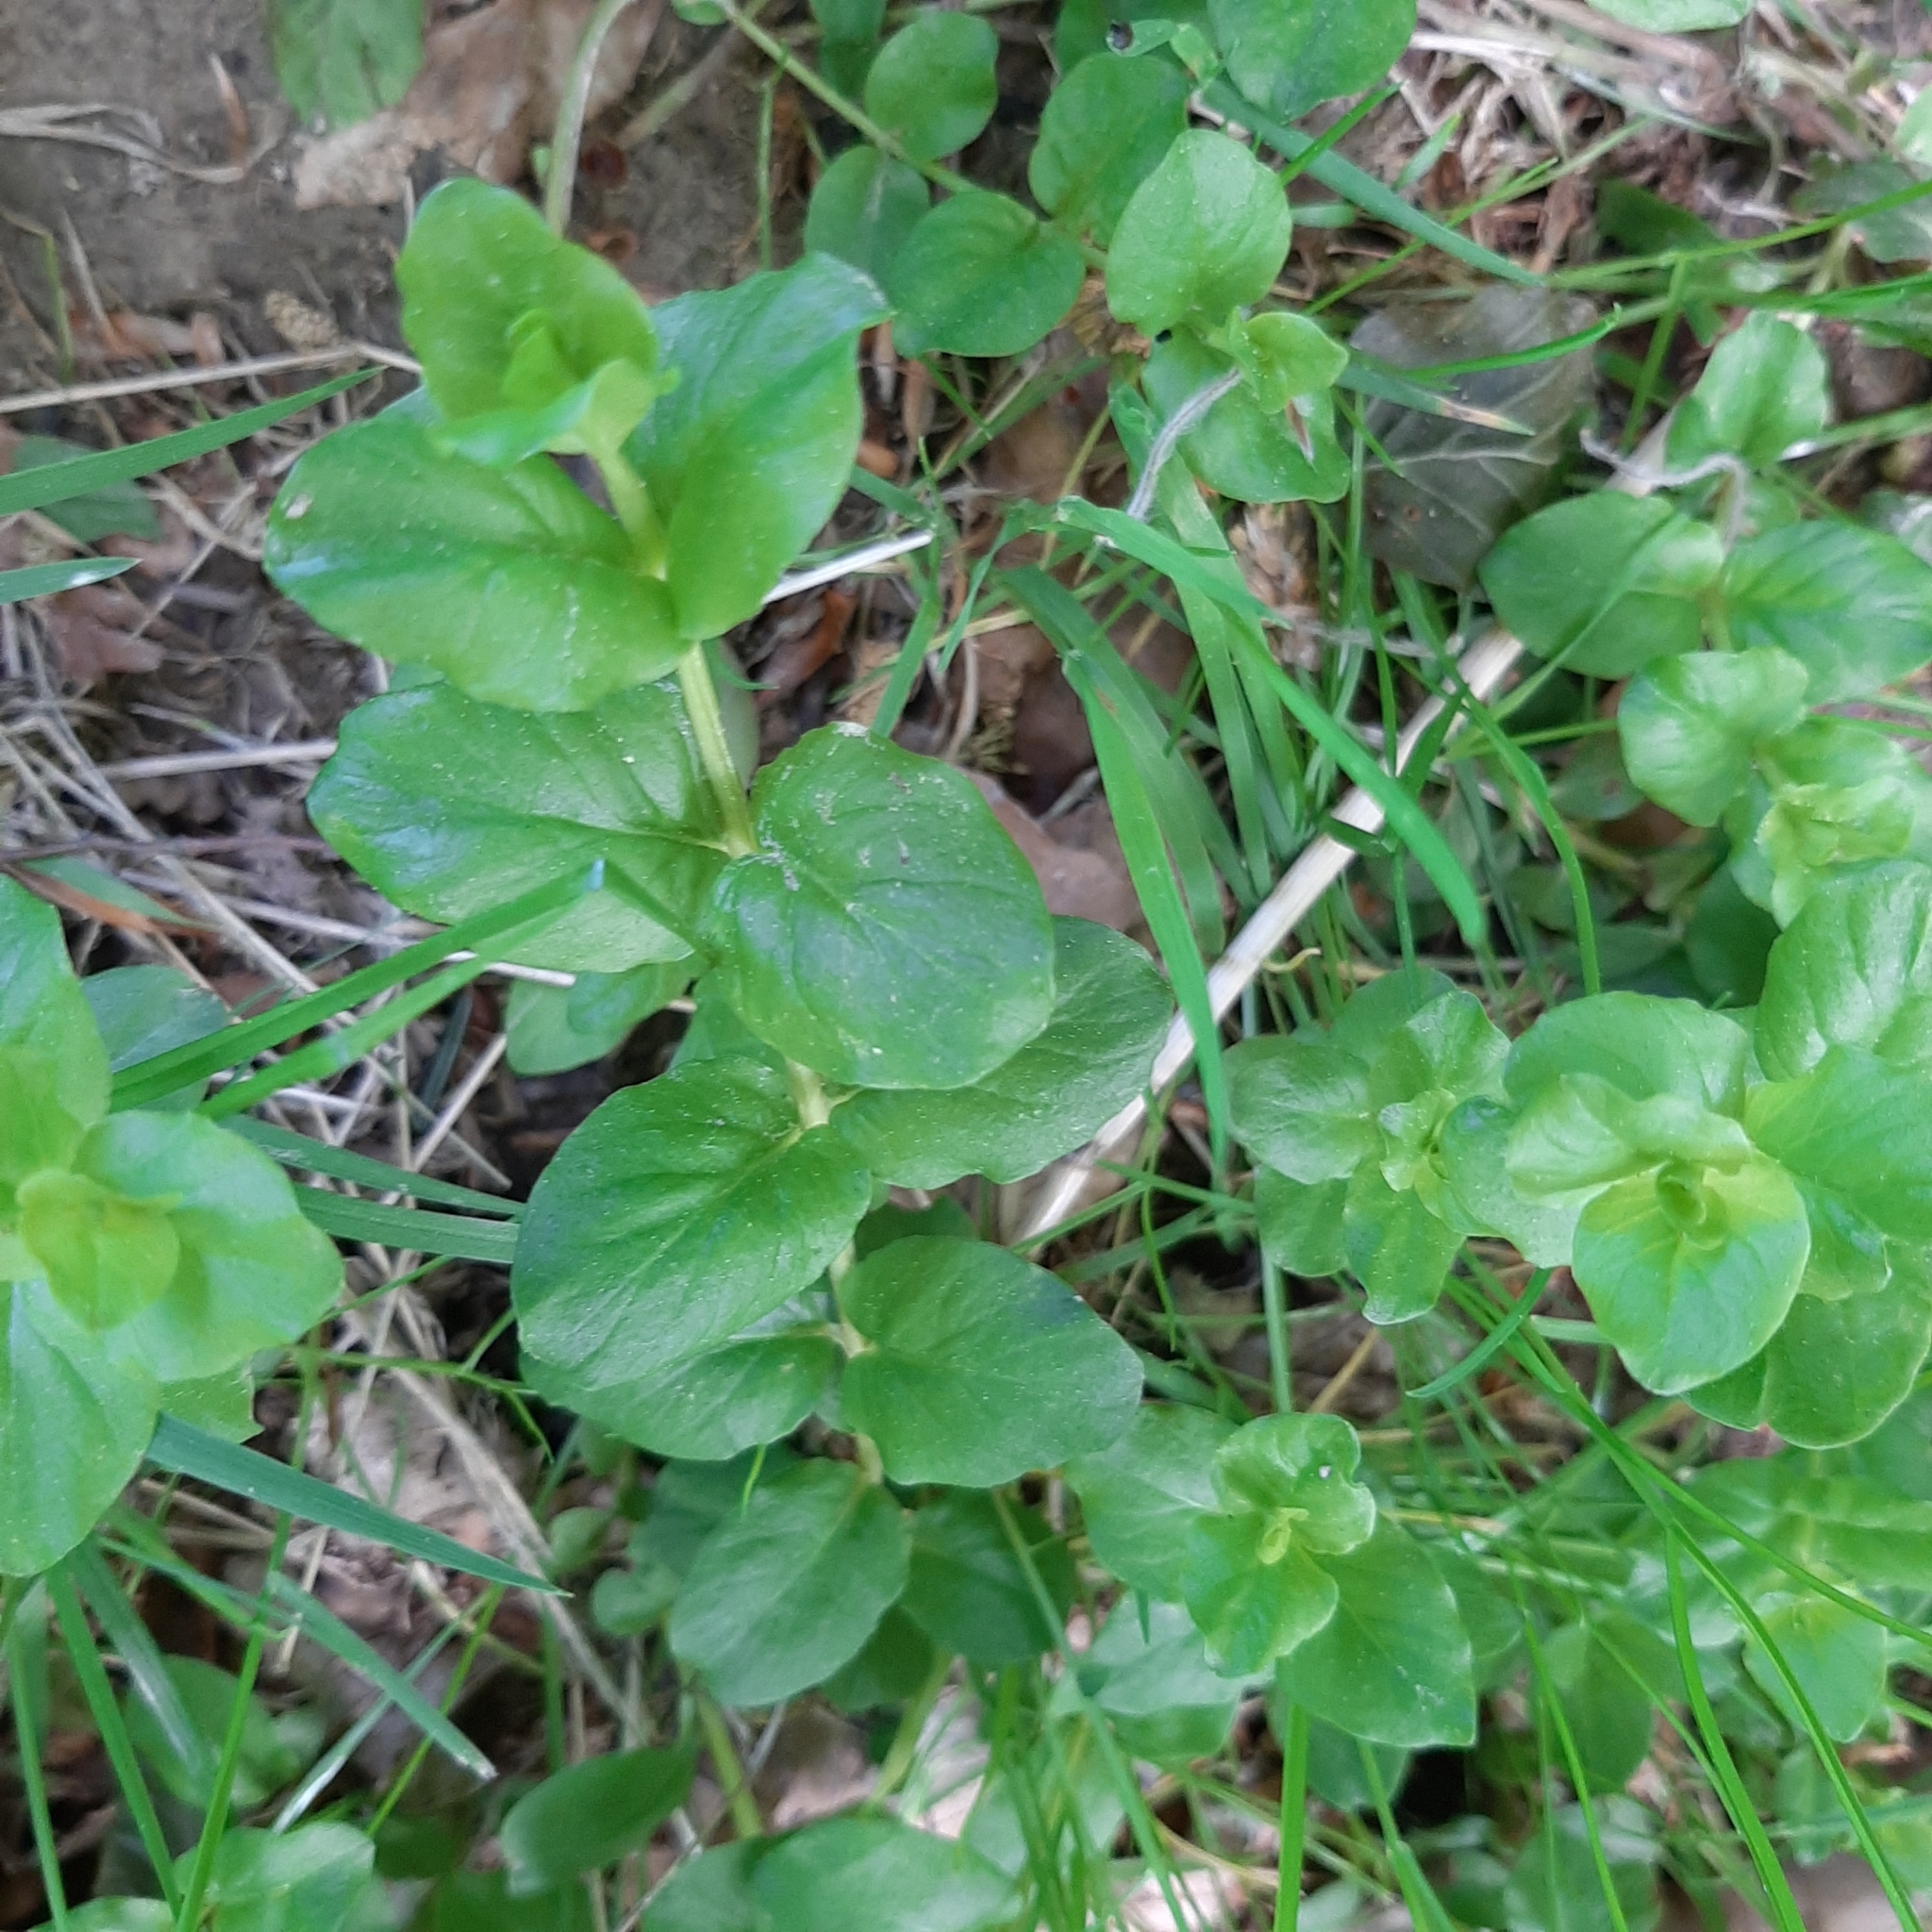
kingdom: Plantae
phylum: Tracheophyta
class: Magnoliopsida
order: Ericales
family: Primulaceae
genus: Lysimachia
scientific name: Lysimachia nummularia
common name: Moneywort
